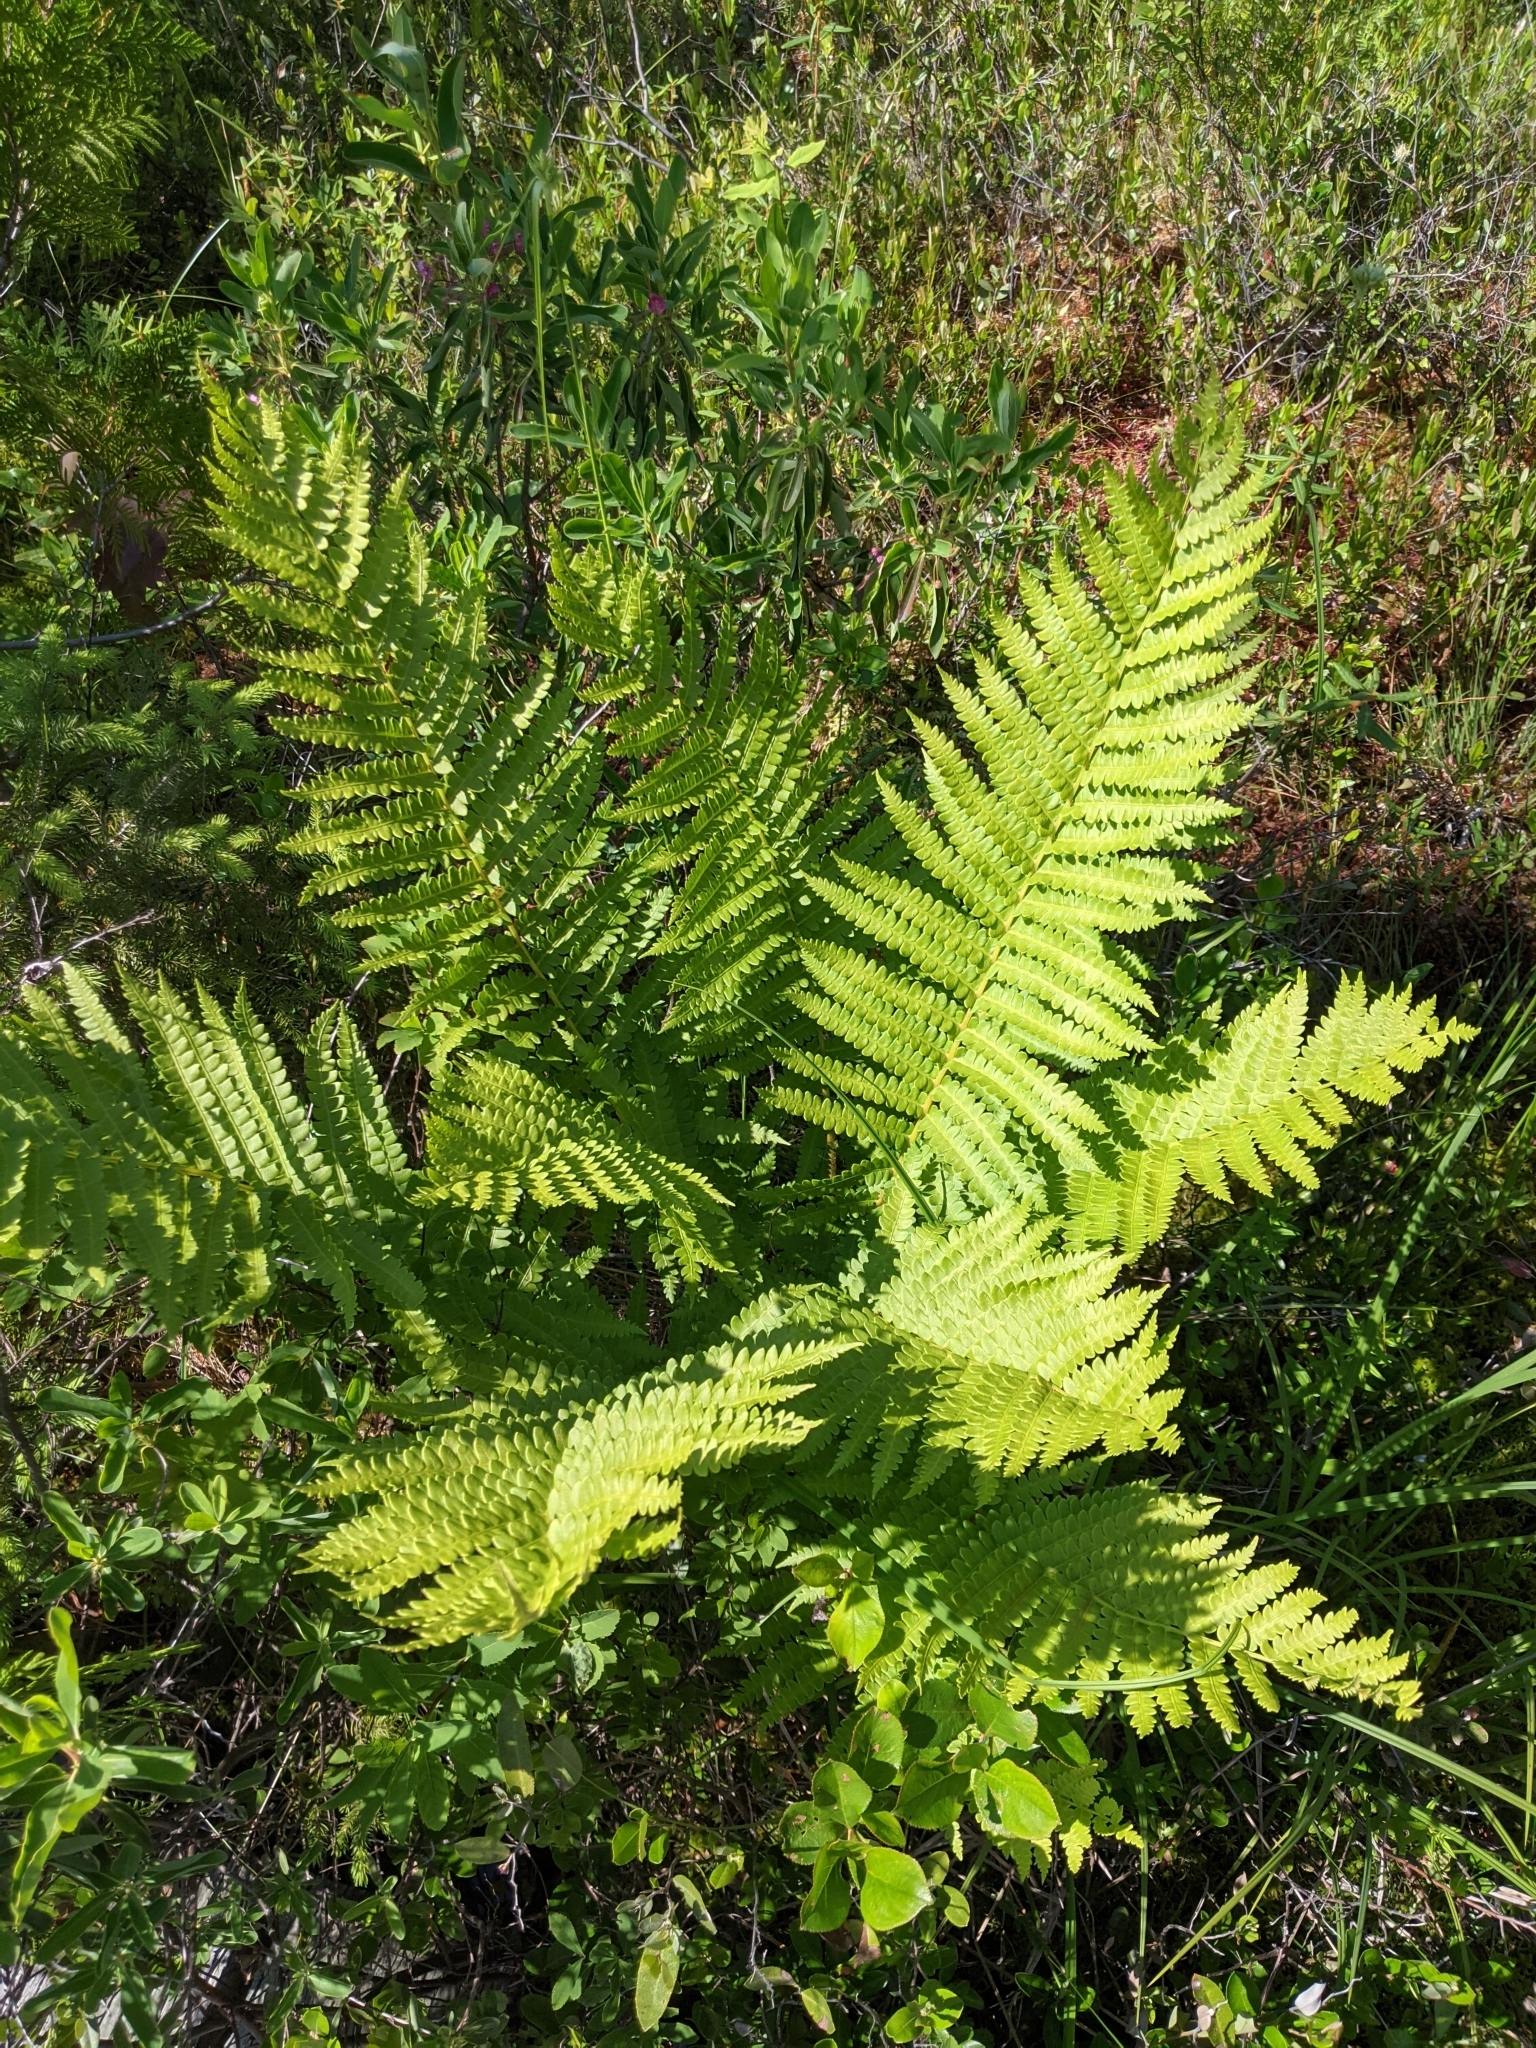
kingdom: Plantae
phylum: Tracheophyta
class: Polypodiopsida
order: Osmundales
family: Osmundaceae
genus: Osmundastrum
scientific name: Osmundastrum cinnamomeum
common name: Cinnamon fern
